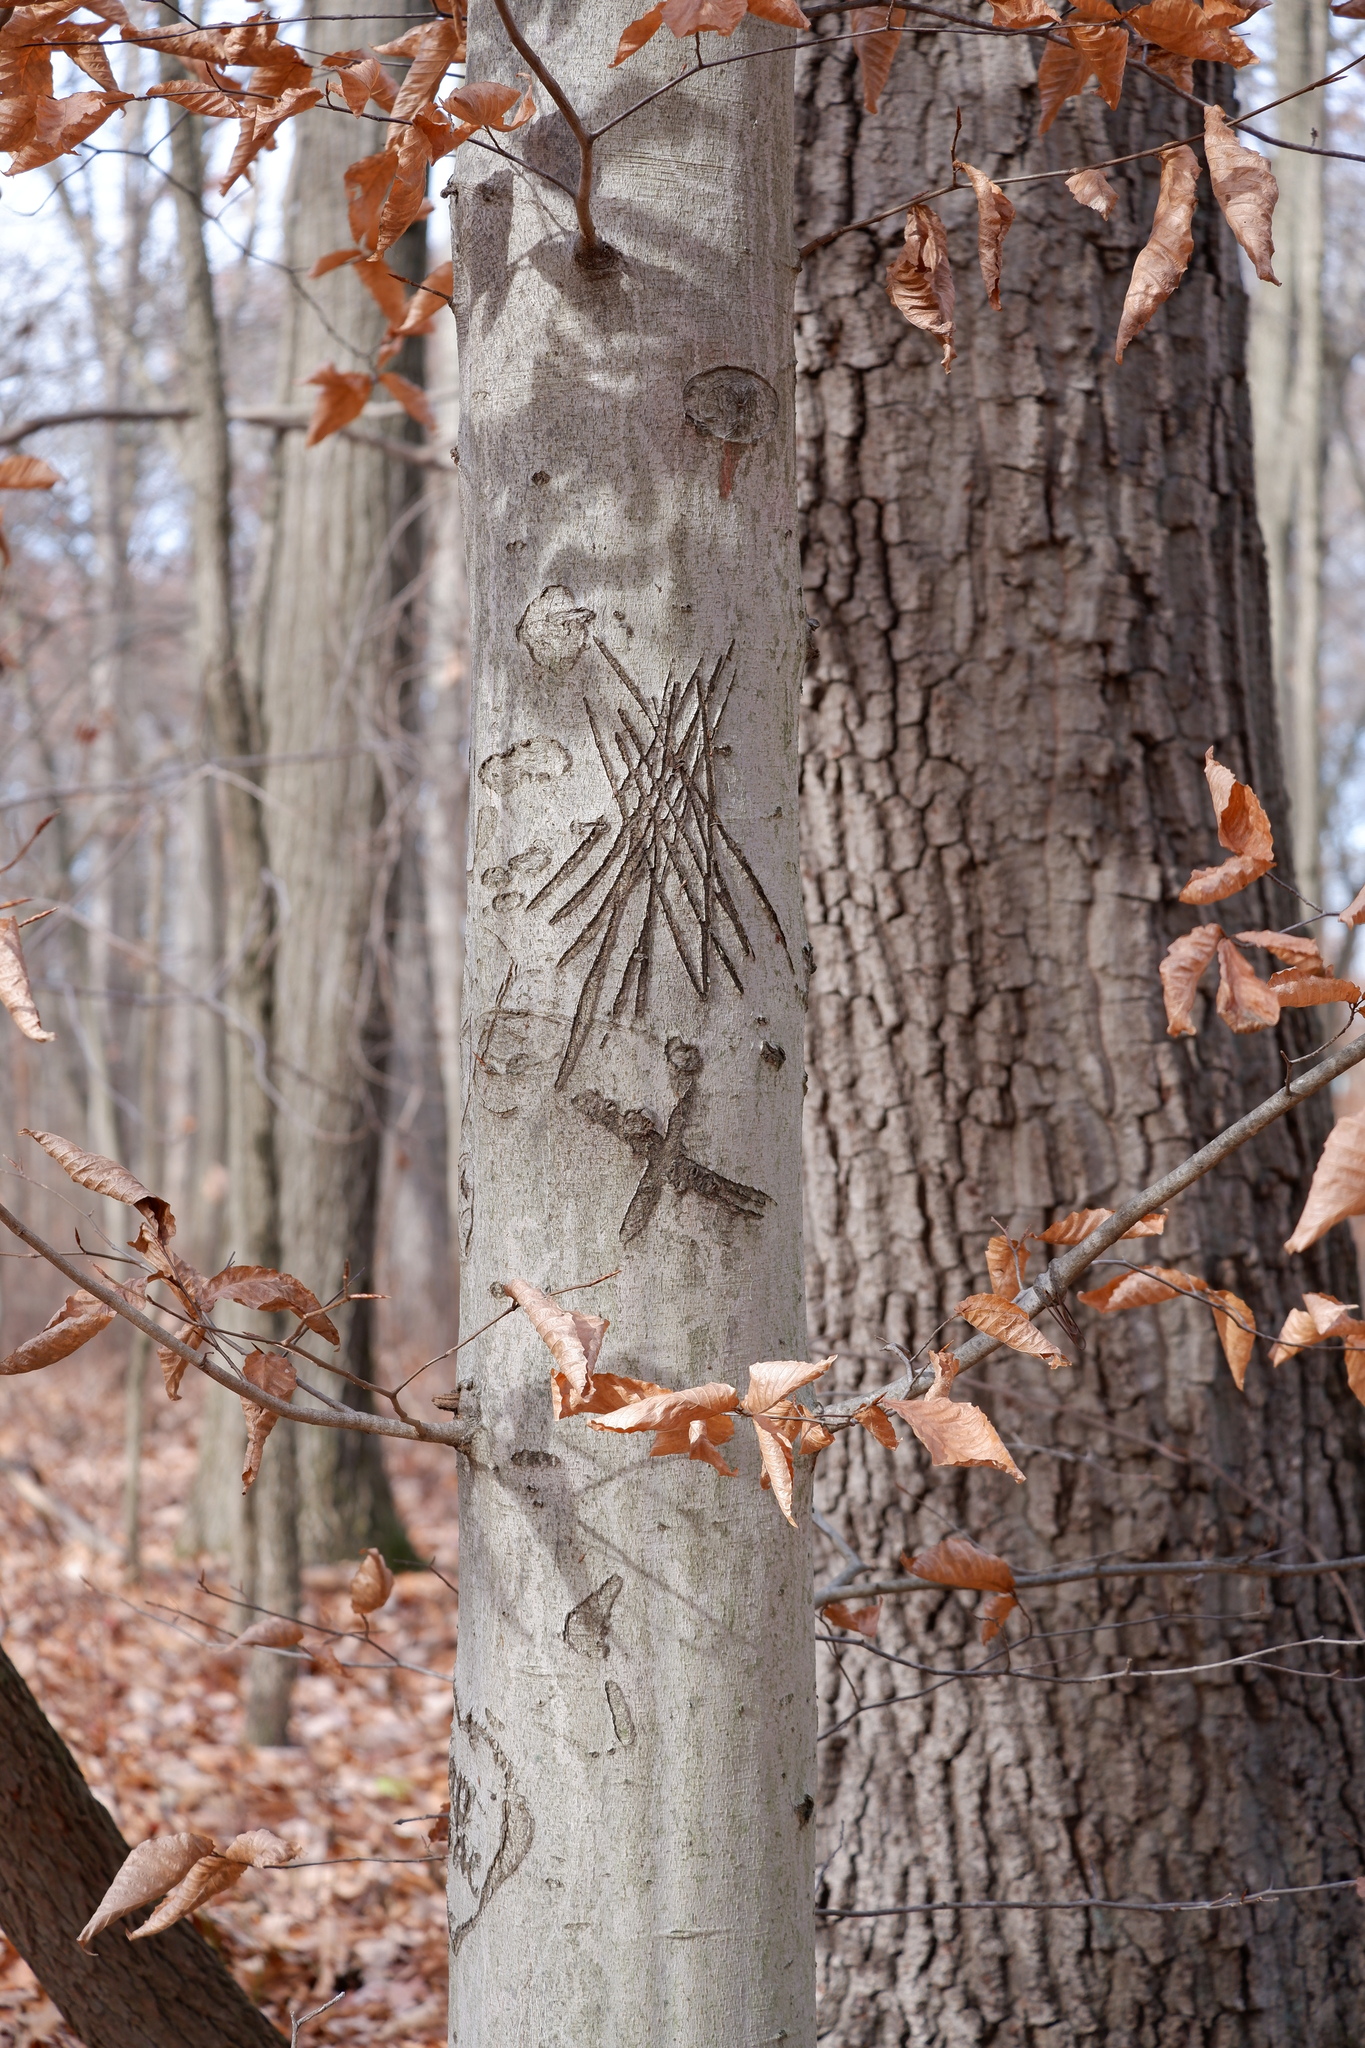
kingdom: Plantae
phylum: Tracheophyta
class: Magnoliopsida
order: Fagales
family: Fagaceae
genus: Fagus
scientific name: Fagus grandifolia
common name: American beech
